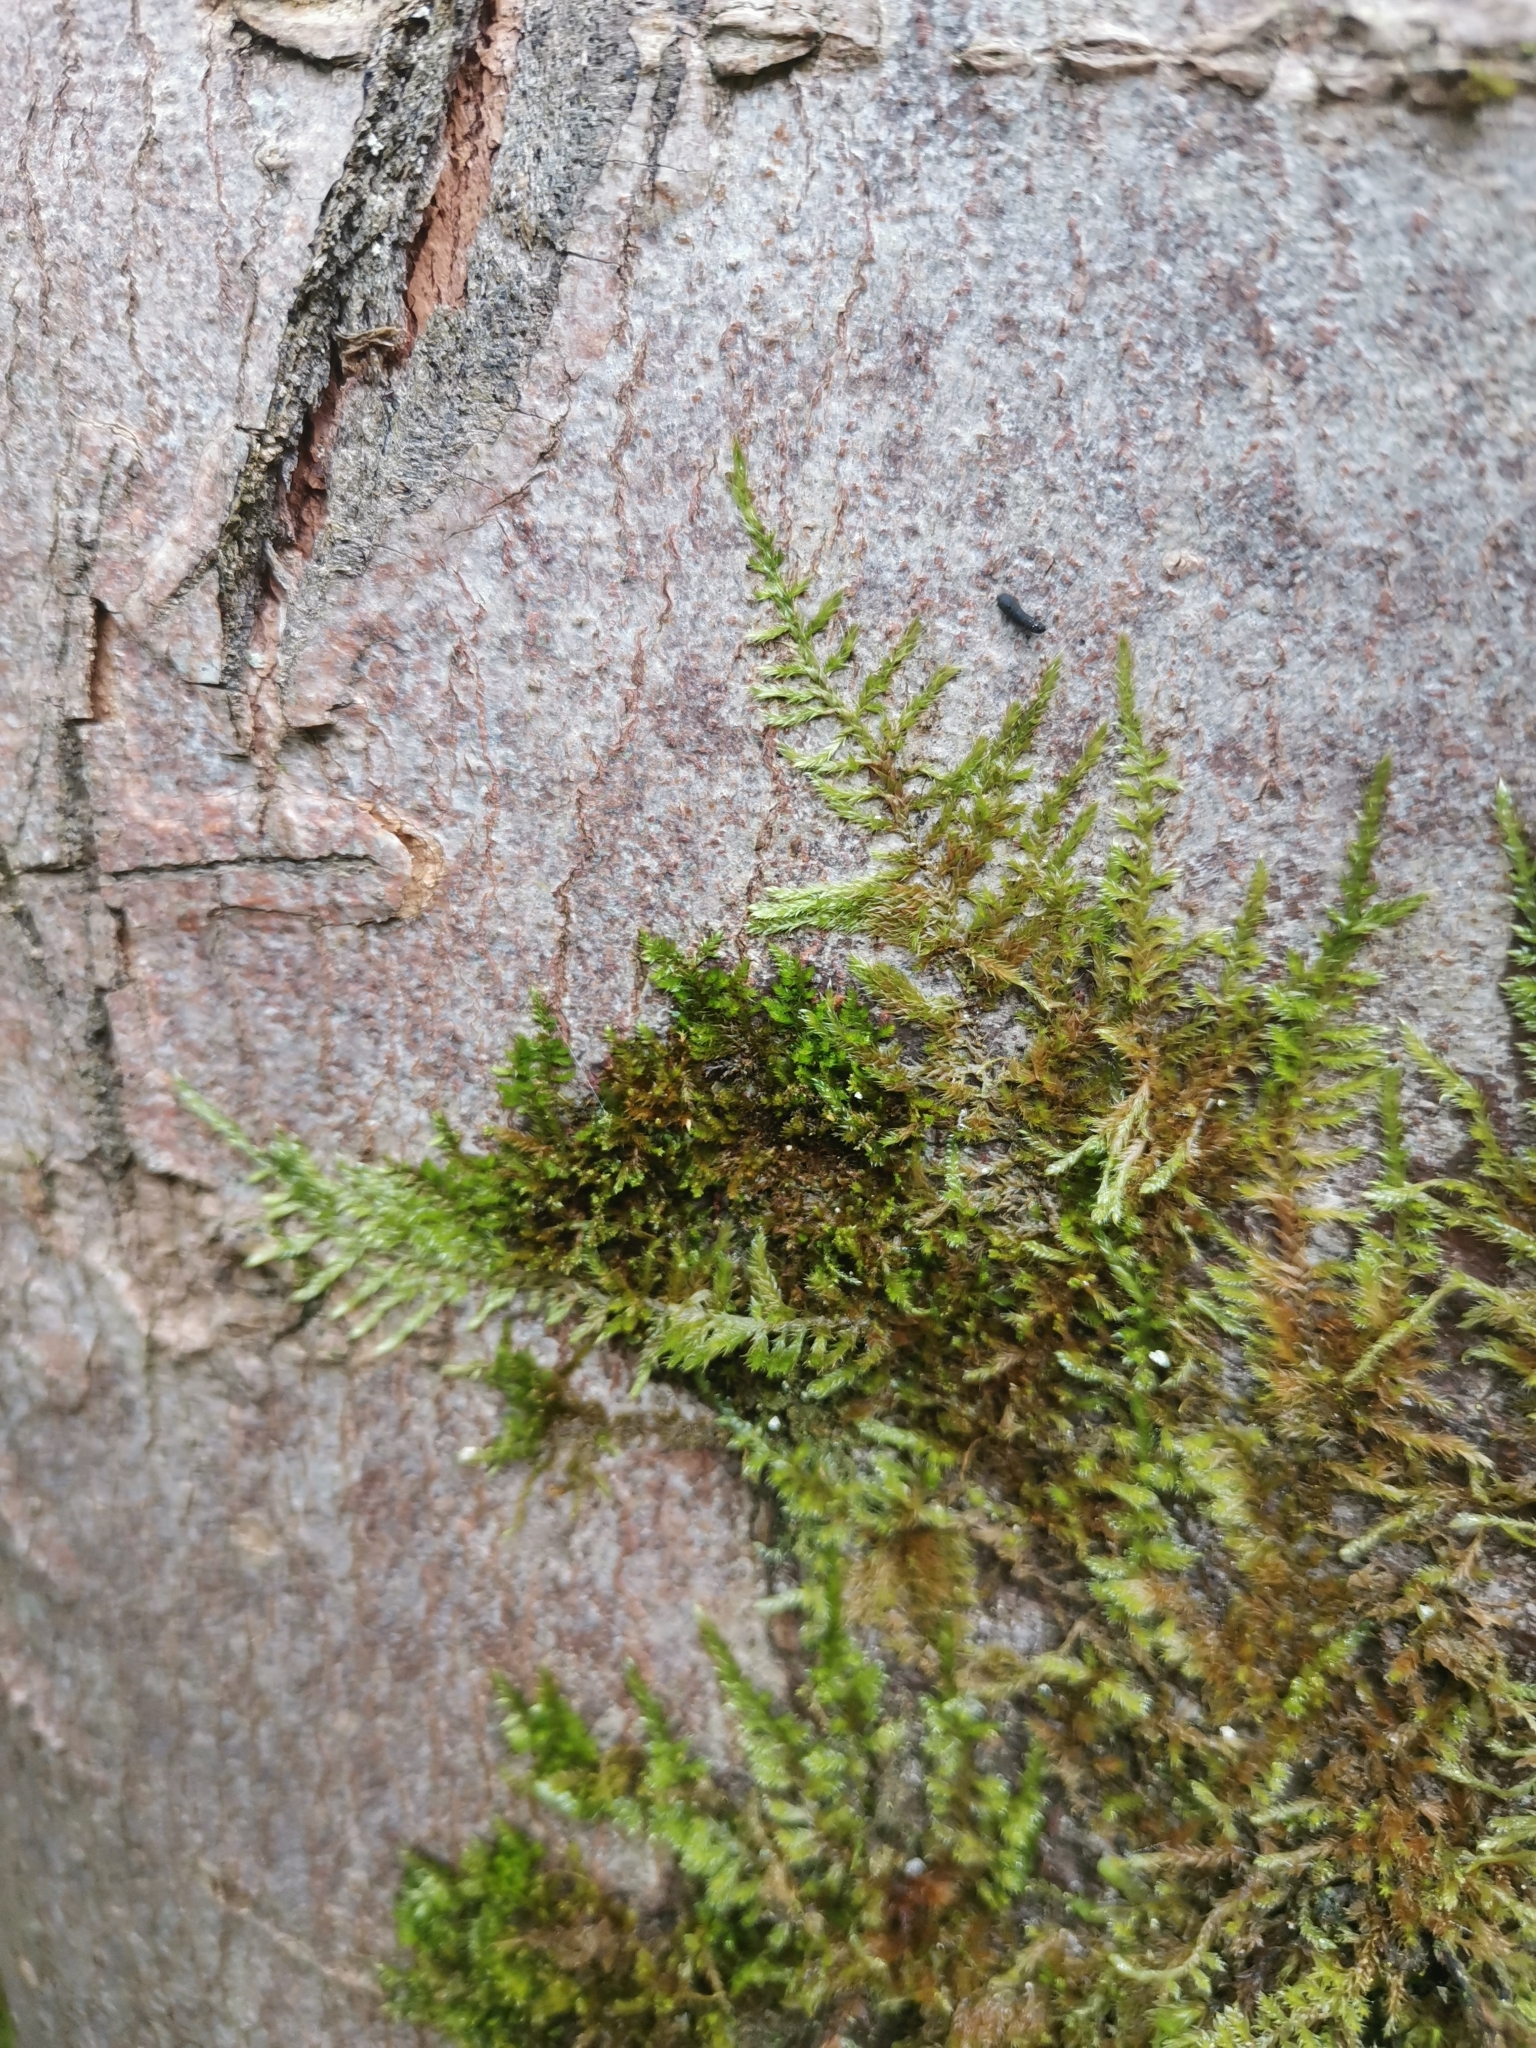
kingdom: Plantae
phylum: Bryophyta
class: Bryopsida
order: Hypnales
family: Pylaisiadelphaceae
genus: Platygyrium
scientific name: Platygyrium repens
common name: Flat-brocade moss
